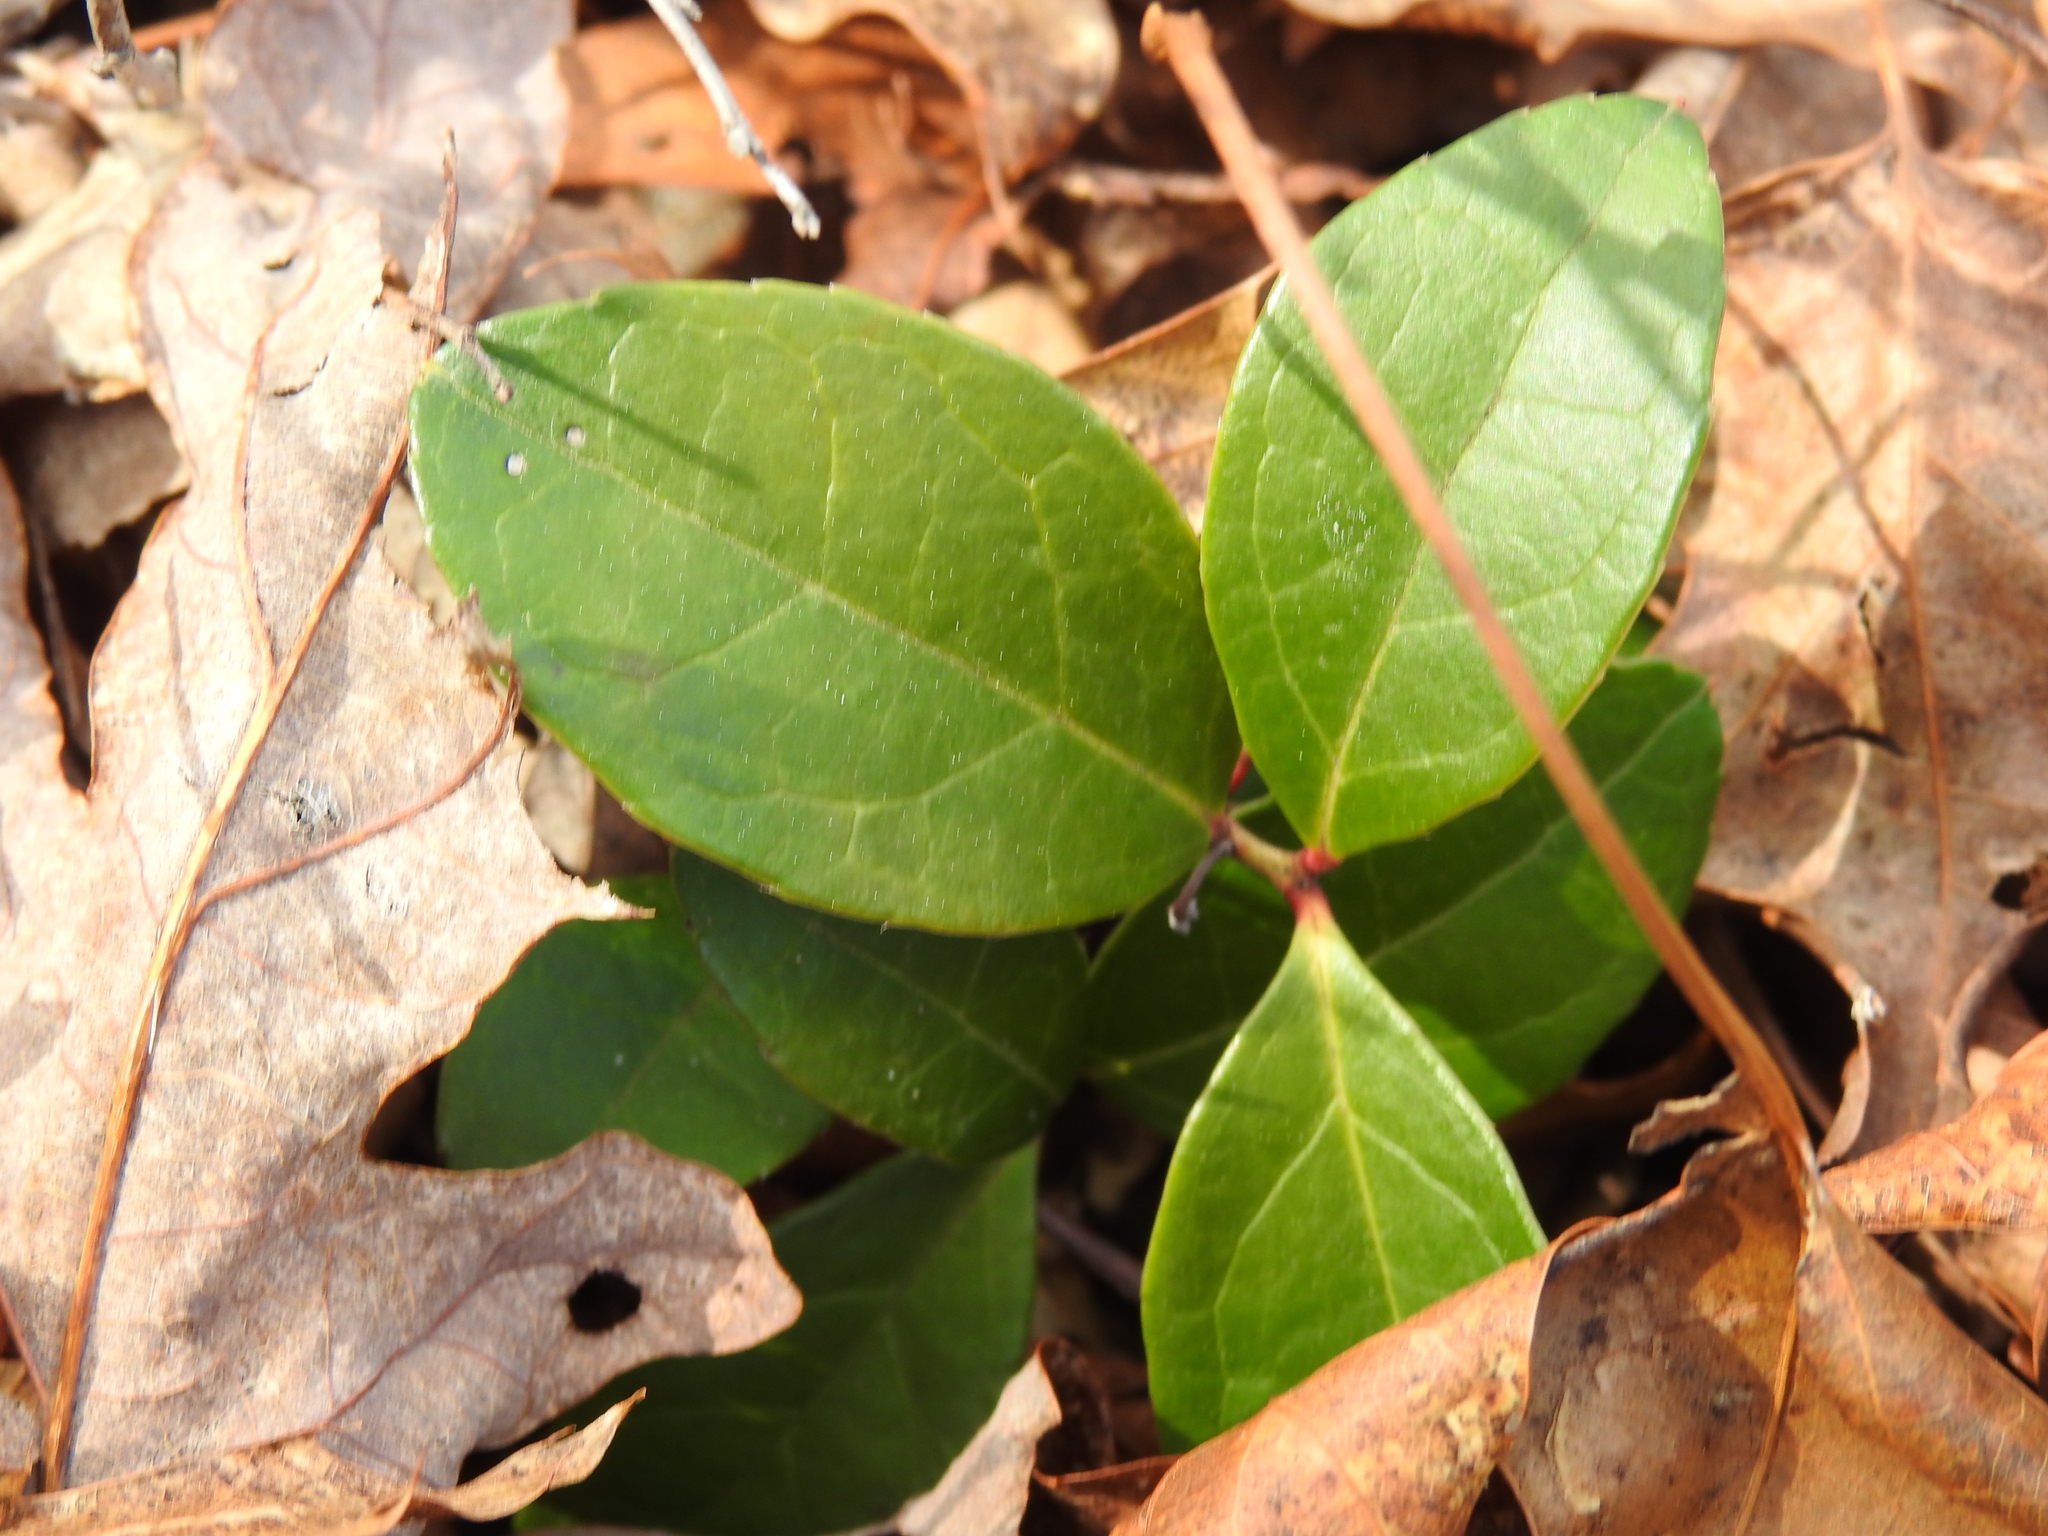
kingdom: Plantae
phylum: Tracheophyta
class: Magnoliopsida
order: Ericales
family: Ericaceae
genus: Gaultheria
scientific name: Gaultheria procumbens
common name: Checkerberry
